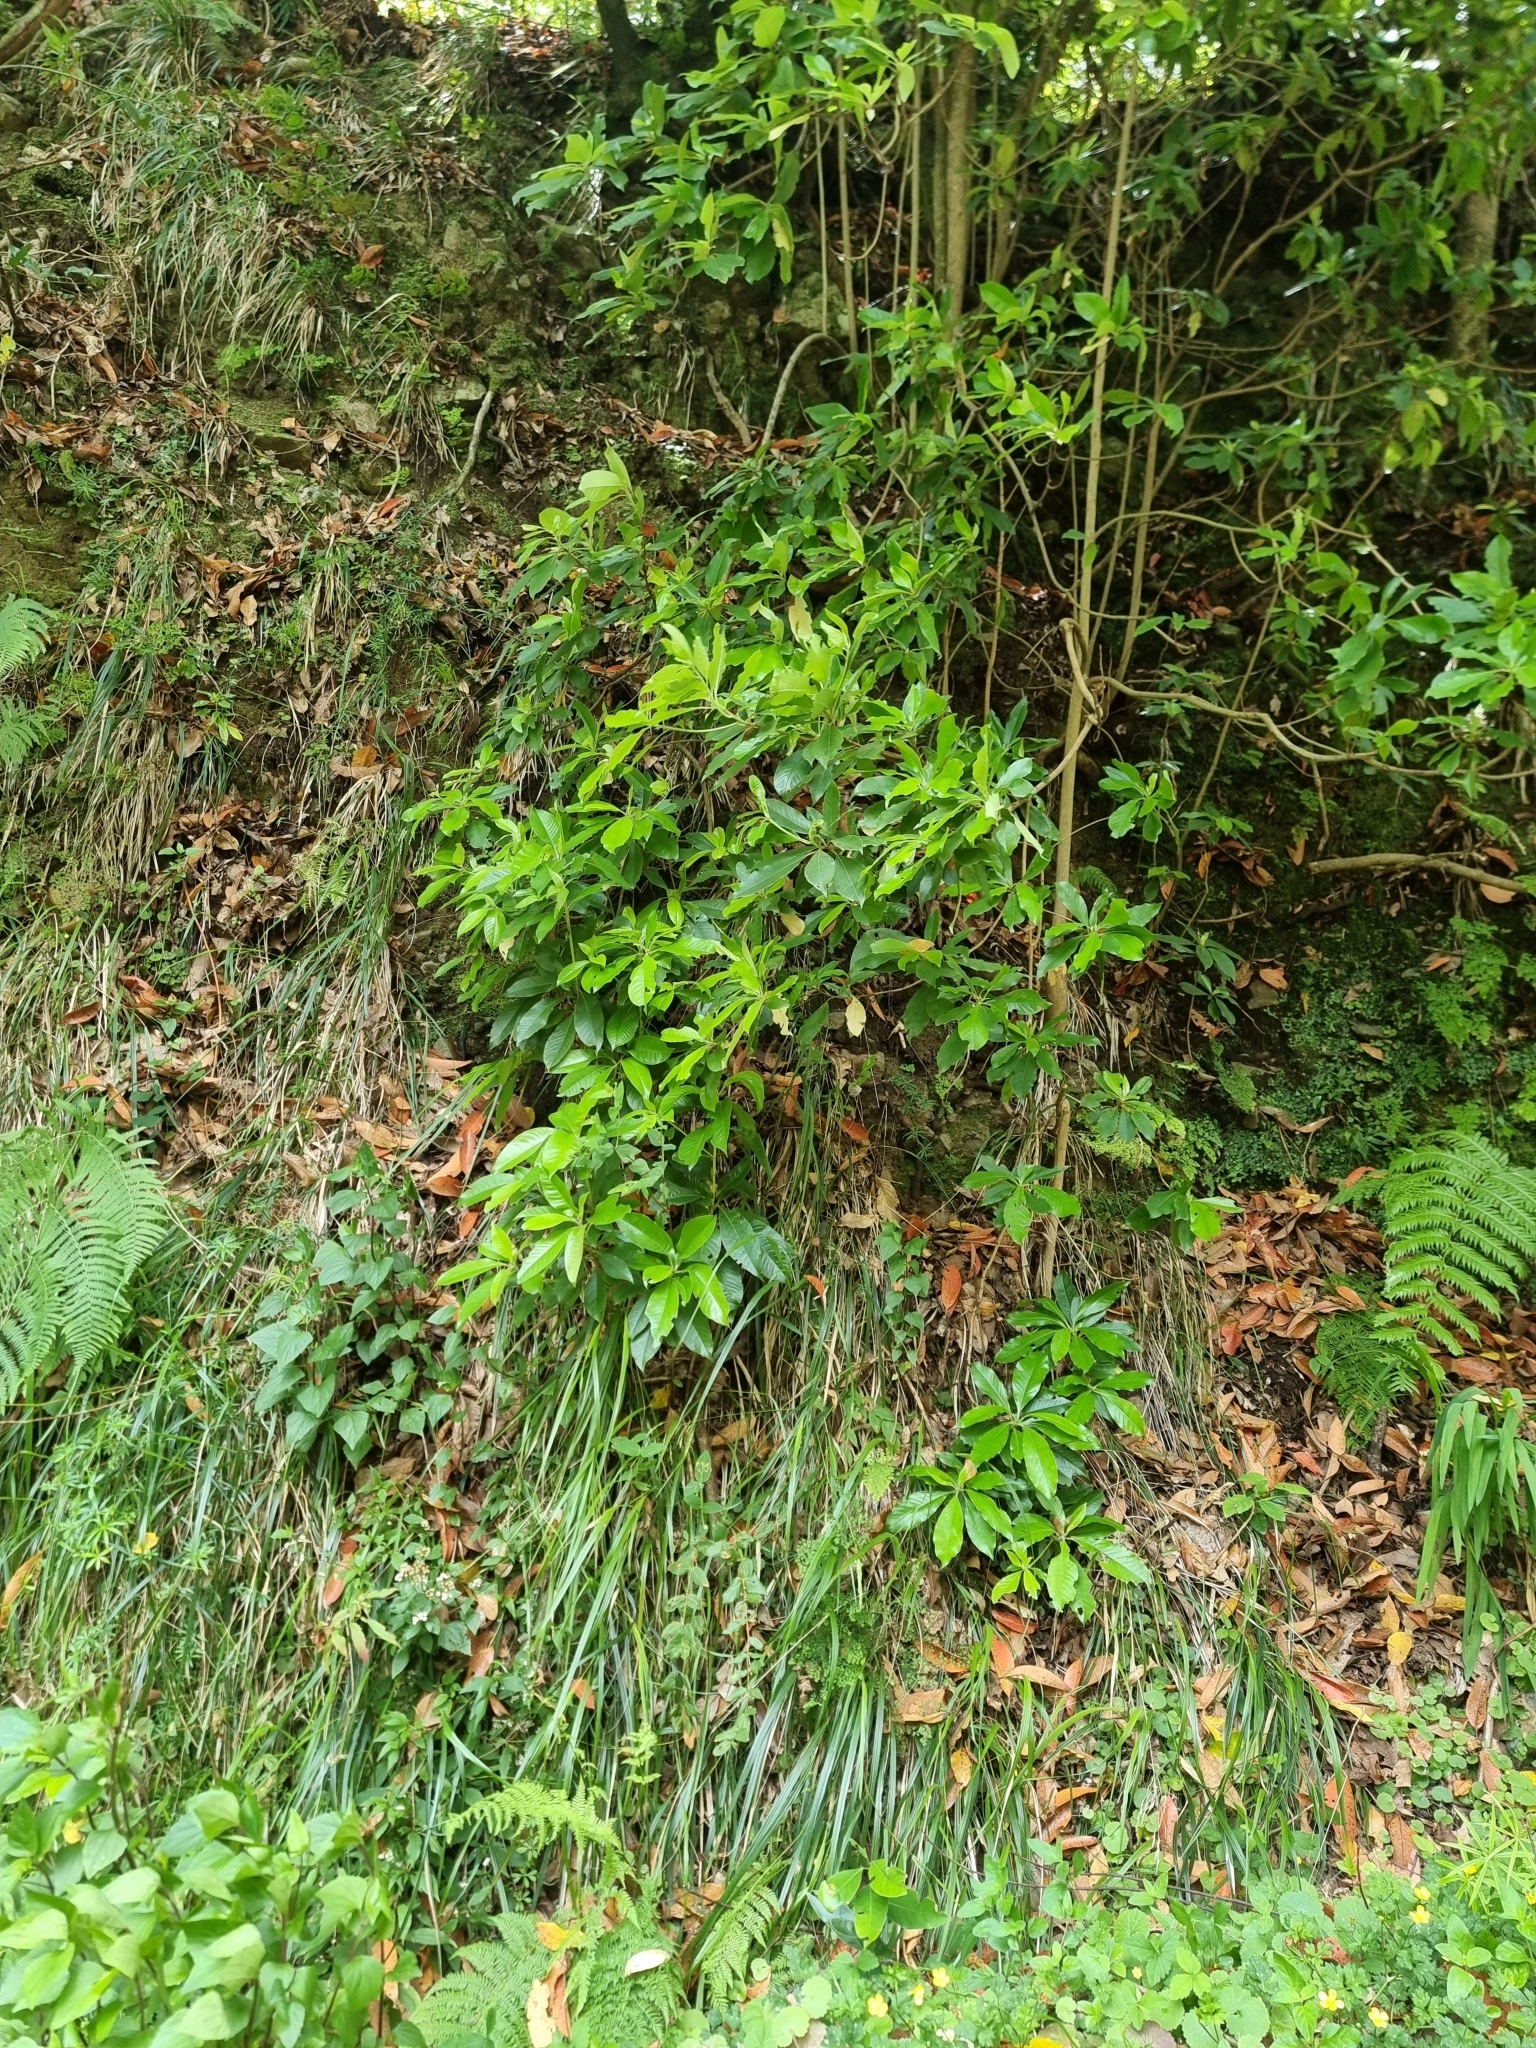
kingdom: Plantae
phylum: Tracheophyta
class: Magnoliopsida
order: Ericales
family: Clethraceae
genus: Clethra
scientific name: Clethra arborea
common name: Lily-of-the-valley-tree
